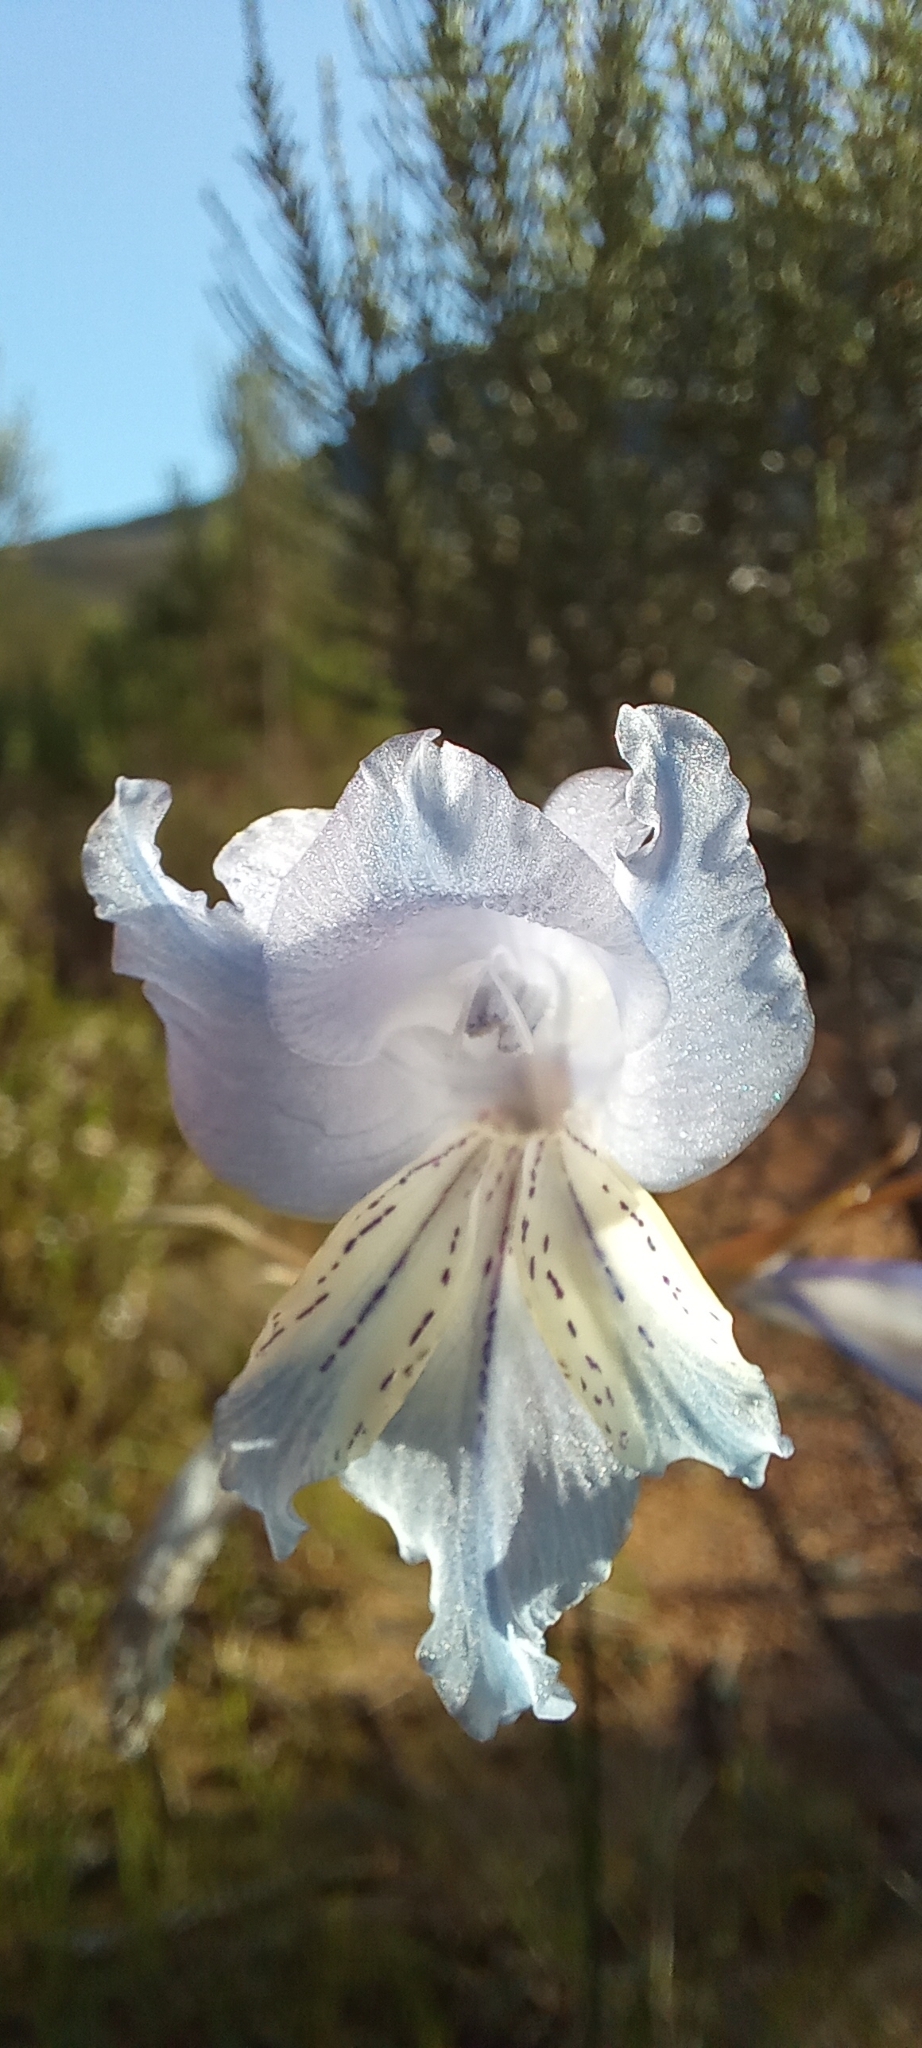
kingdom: Plantae
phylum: Tracheophyta
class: Liliopsida
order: Asparagales
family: Iridaceae
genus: Gladiolus
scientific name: Gladiolus gracilis
